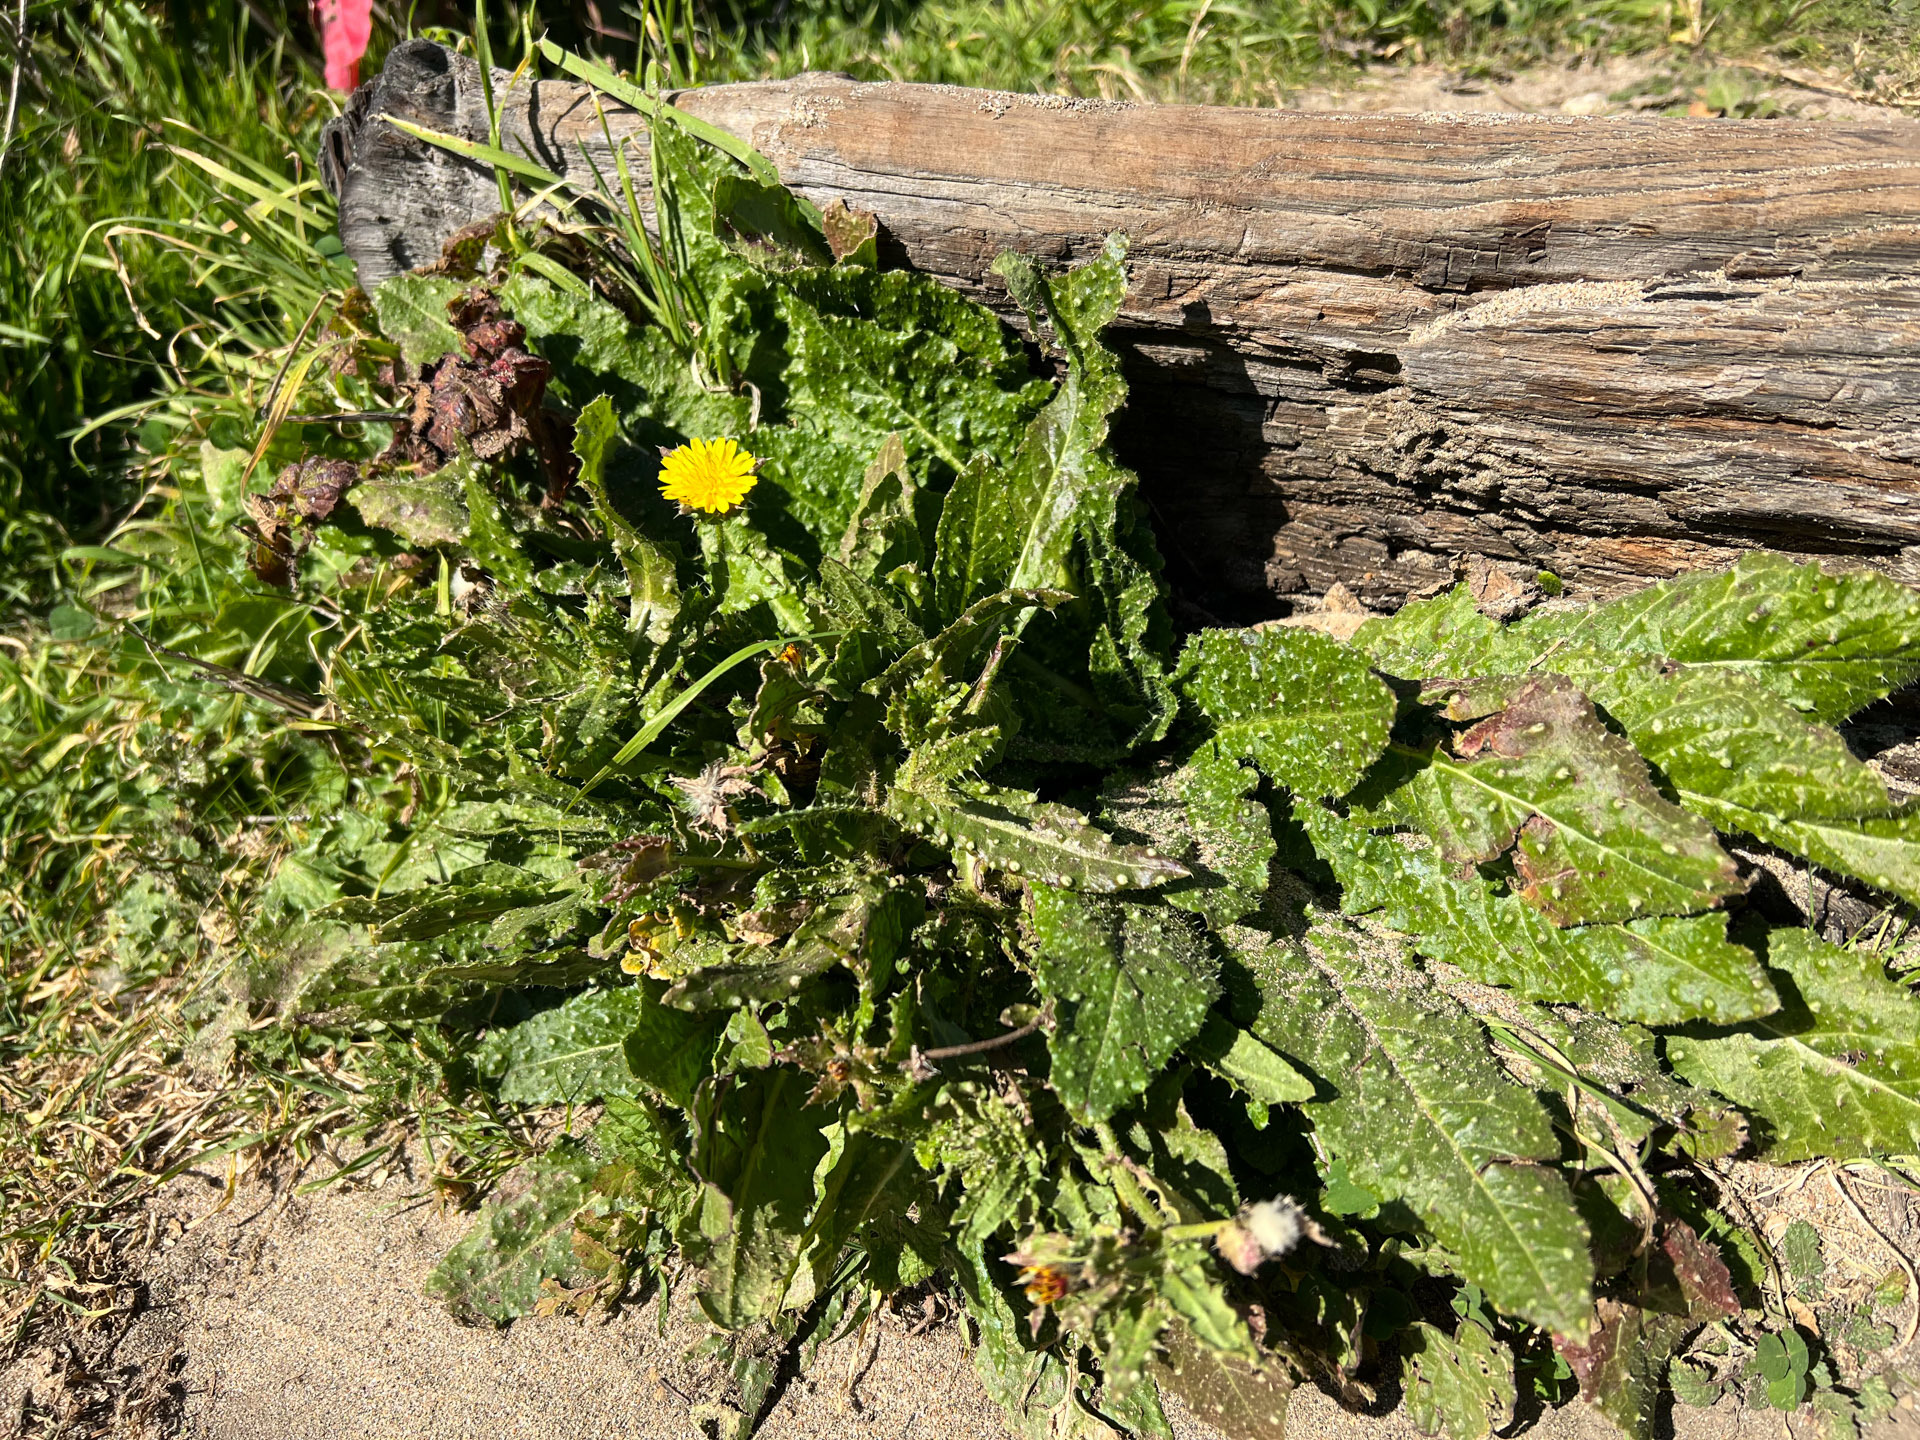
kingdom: Plantae
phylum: Tracheophyta
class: Magnoliopsida
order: Asterales
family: Asteraceae
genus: Helminthotheca
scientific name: Helminthotheca echioides
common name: Ox-tongue
